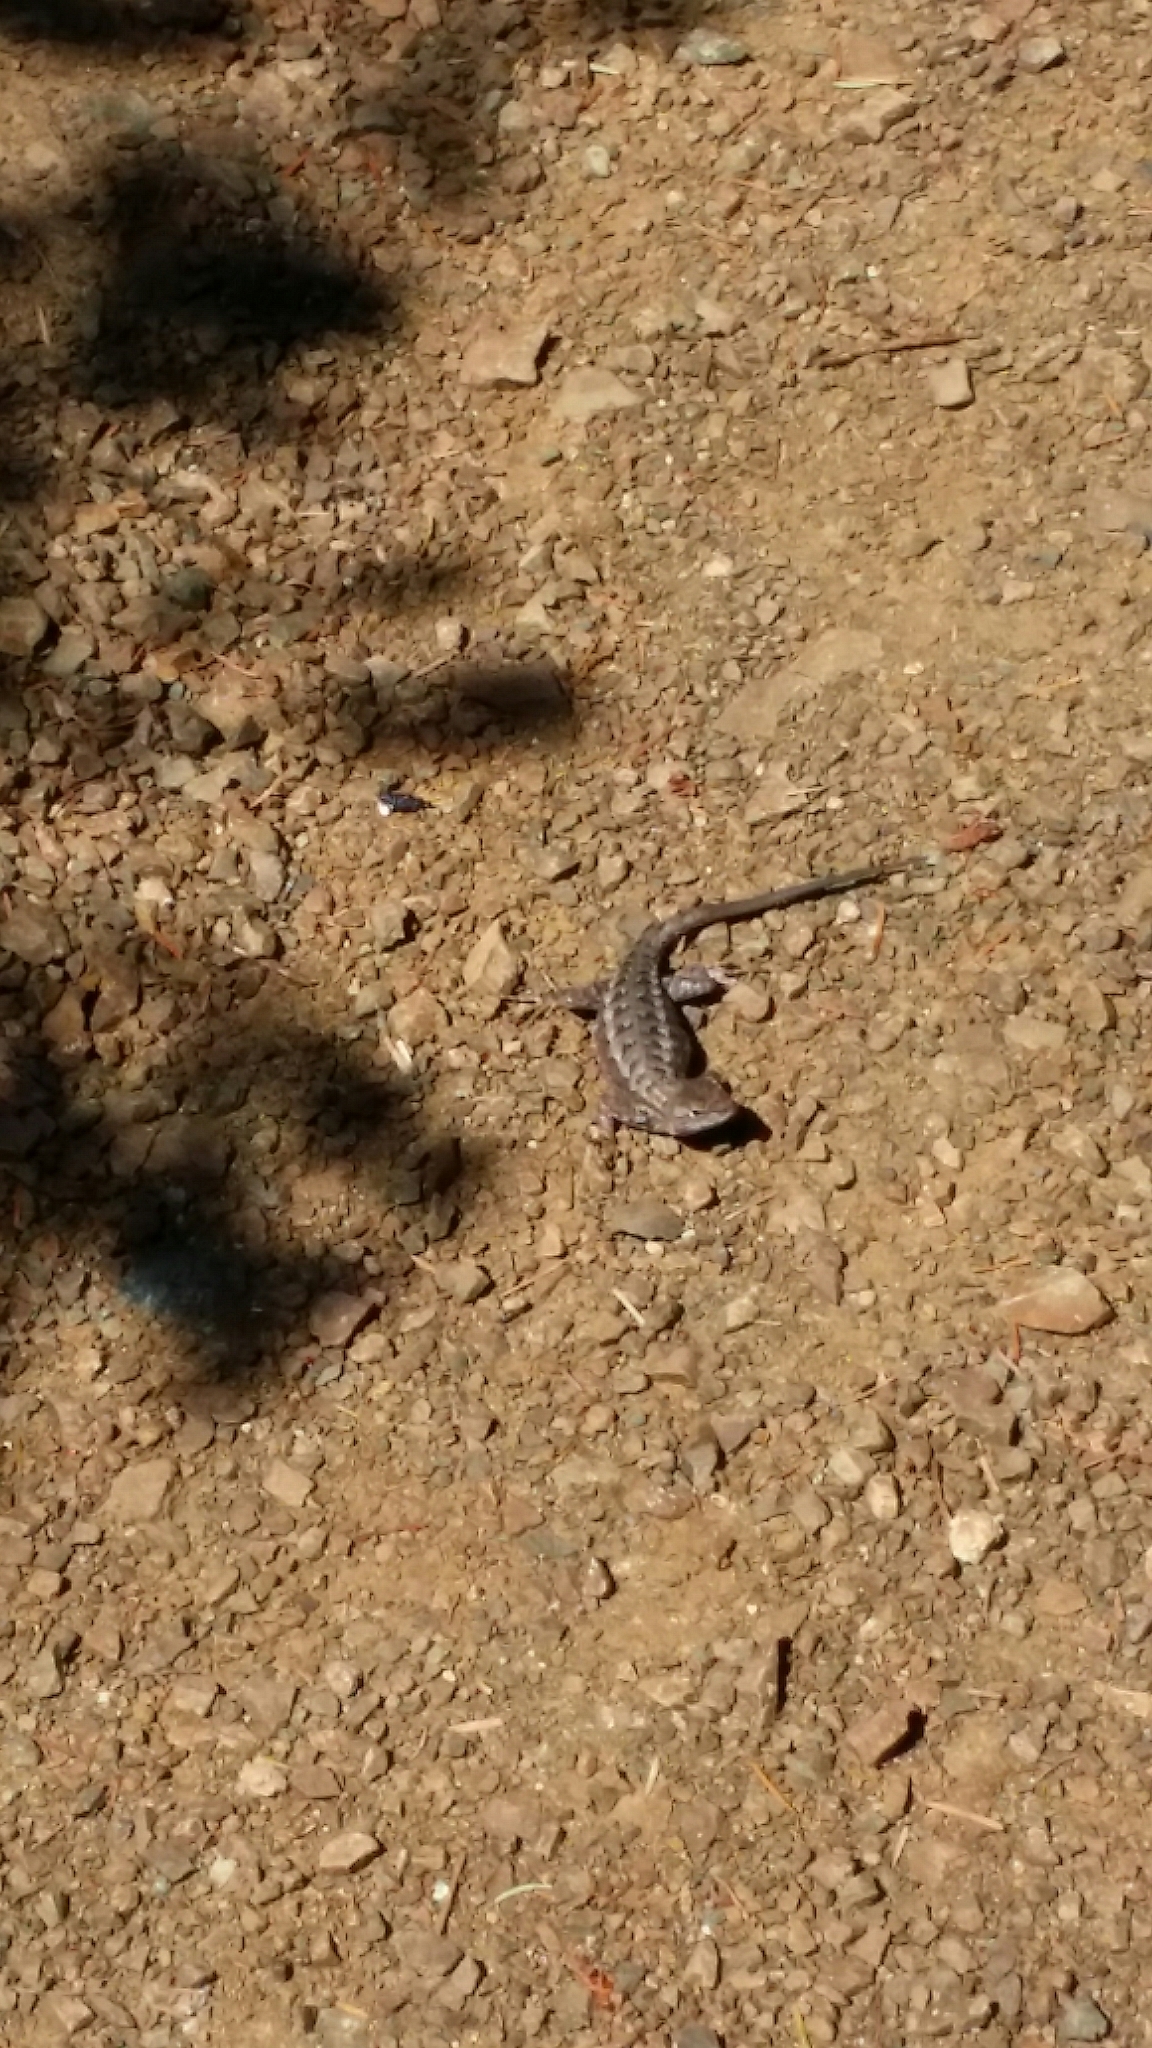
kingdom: Animalia
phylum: Chordata
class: Squamata
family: Phrynosomatidae
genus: Sceloporus
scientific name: Sceloporus occidentalis
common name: Western fence lizard
